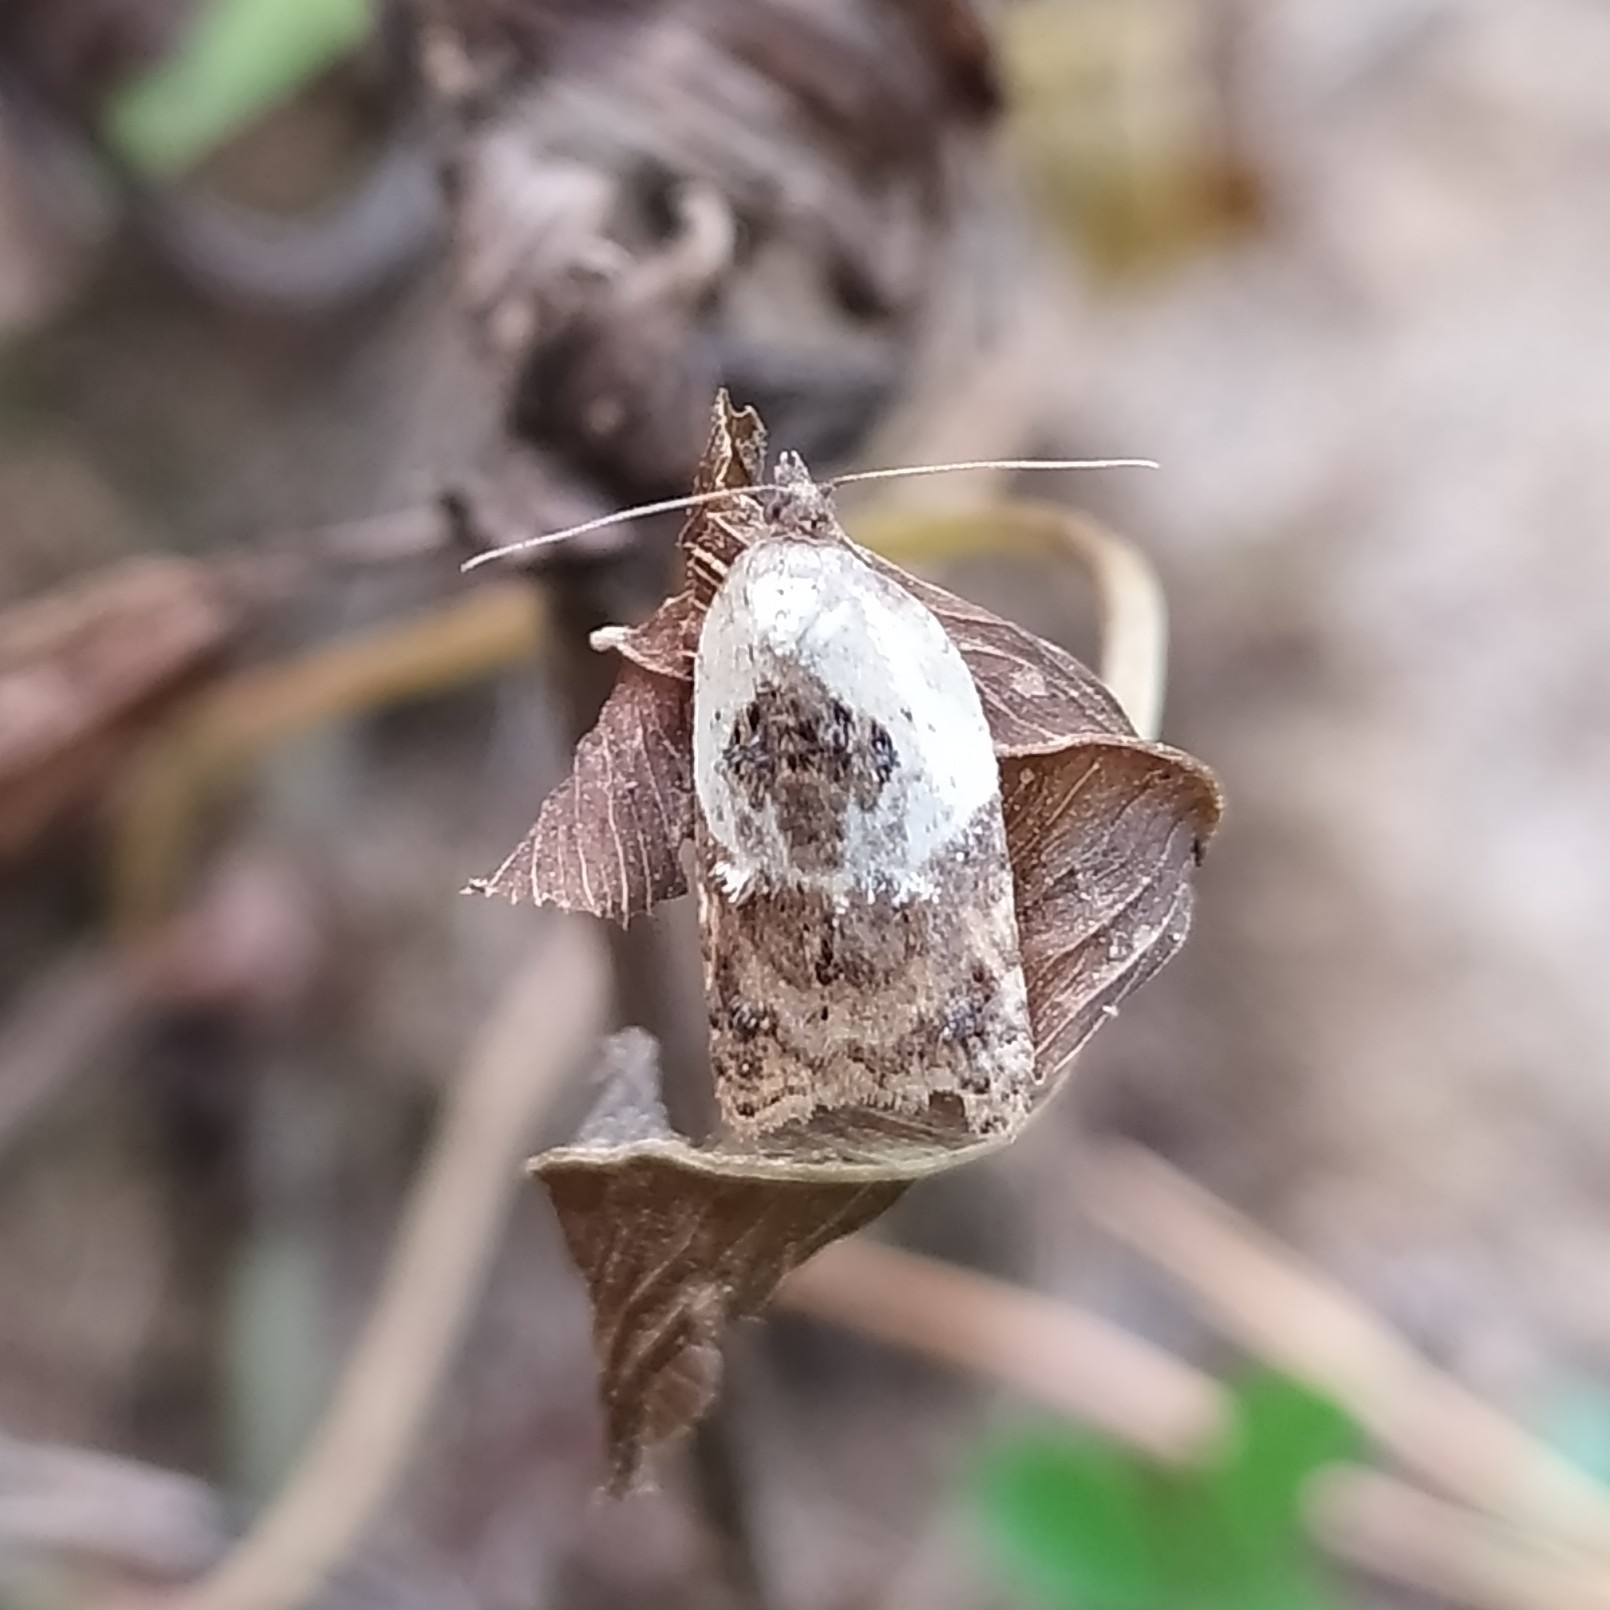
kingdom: Animalia
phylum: Arthropoda
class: Insecta
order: Lepidoptera
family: Tortricidae
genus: Acleris
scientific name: Acleris variegana
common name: Garden rose tortrix
